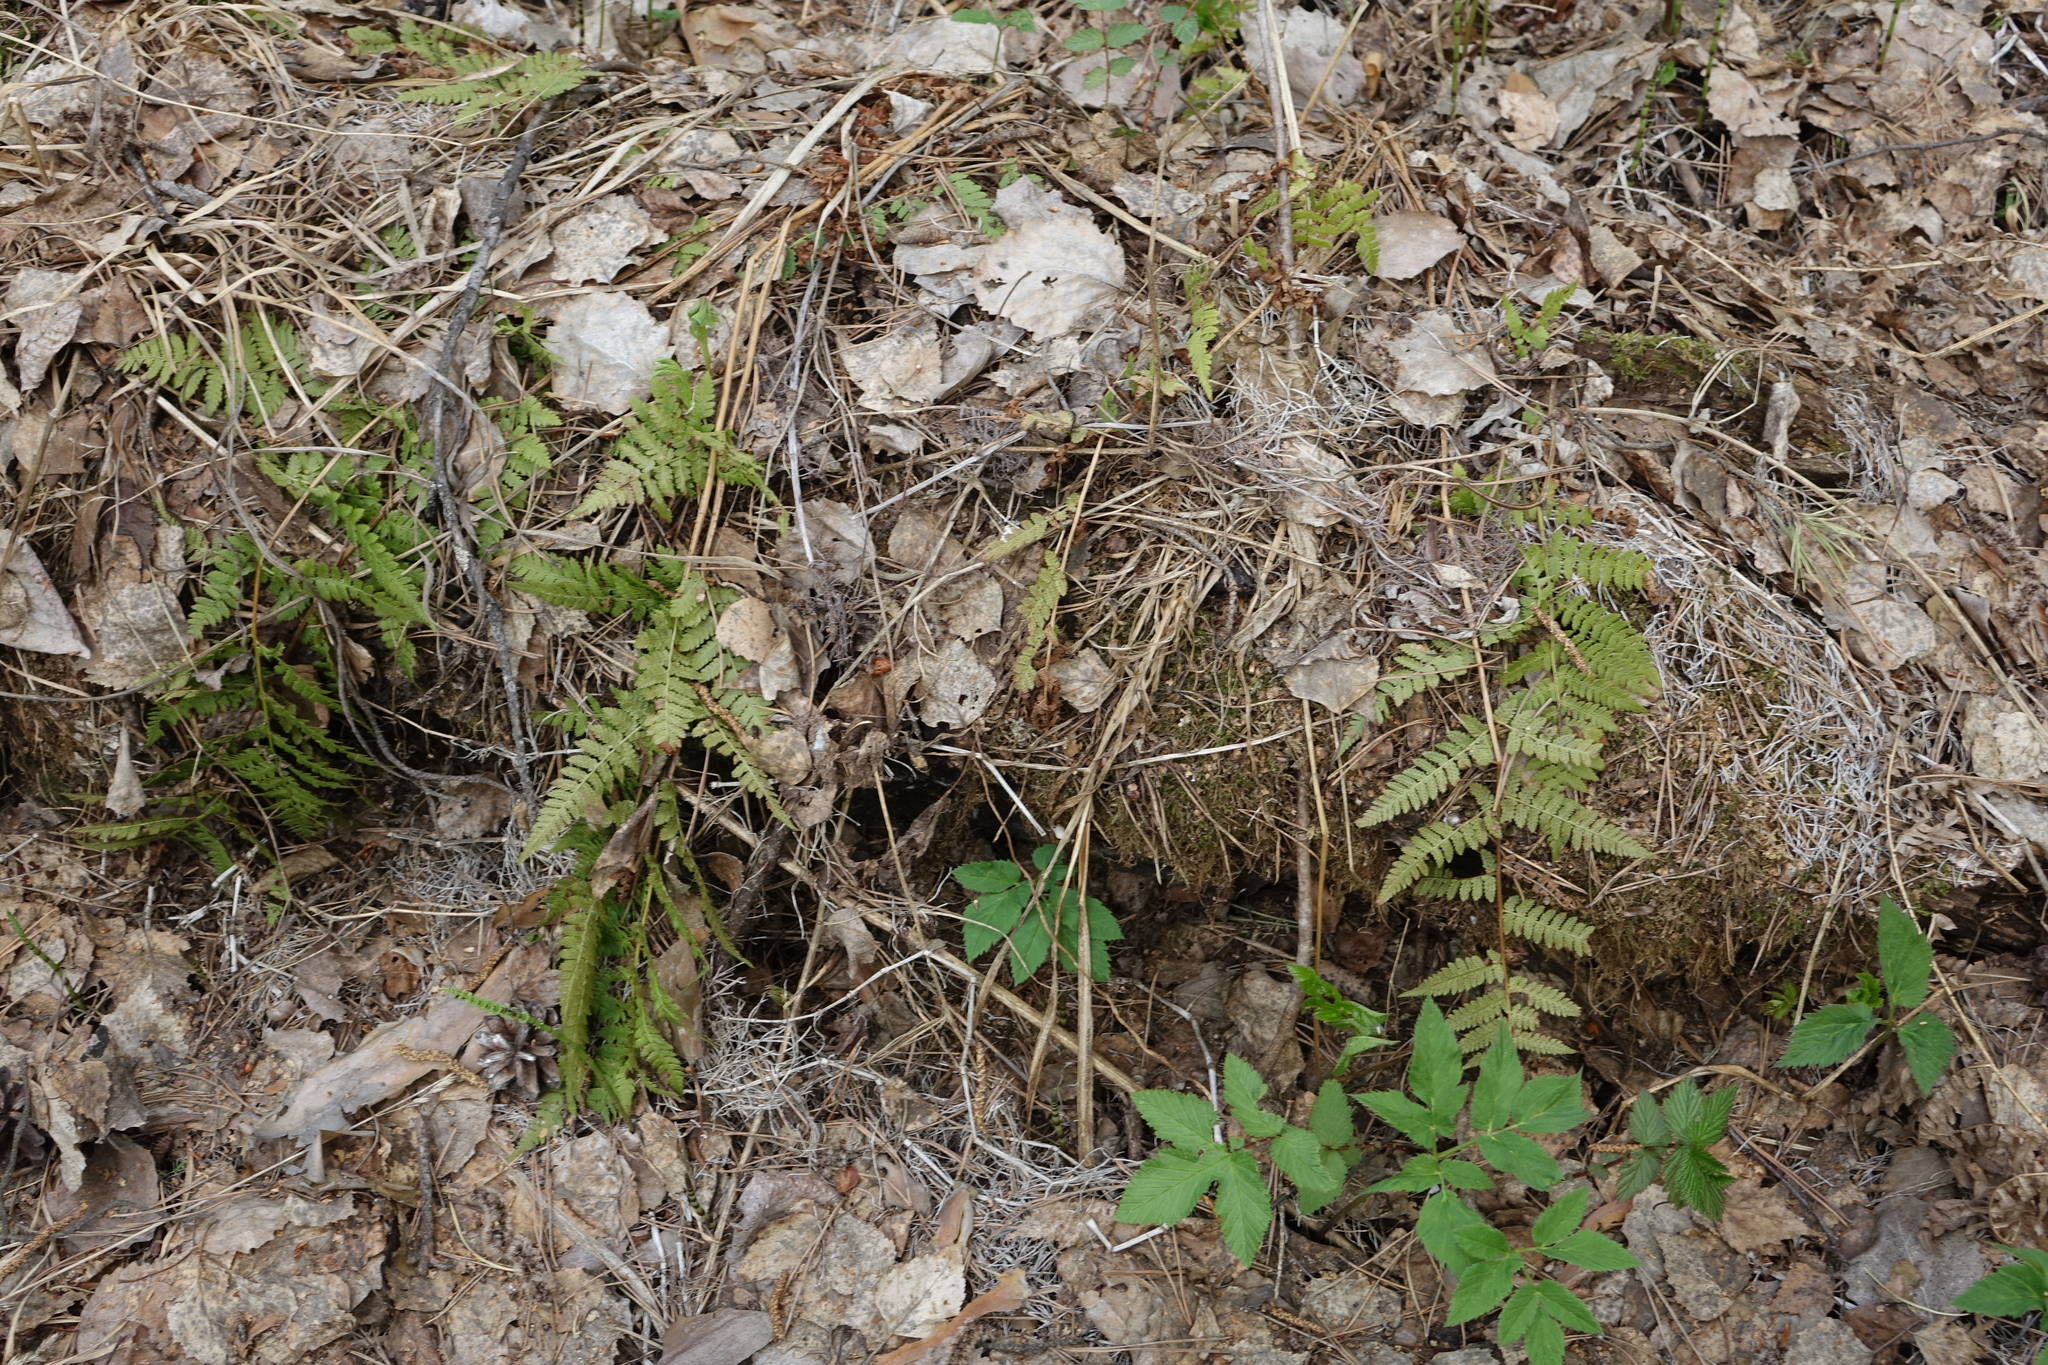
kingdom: Plantae
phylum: Tracheophyta
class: Polypodiopsida
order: Polypodiales
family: Dryopteridaceae
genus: Dryopteris
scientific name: Dryopteris carthusiana
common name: Narrow buckler-fern
